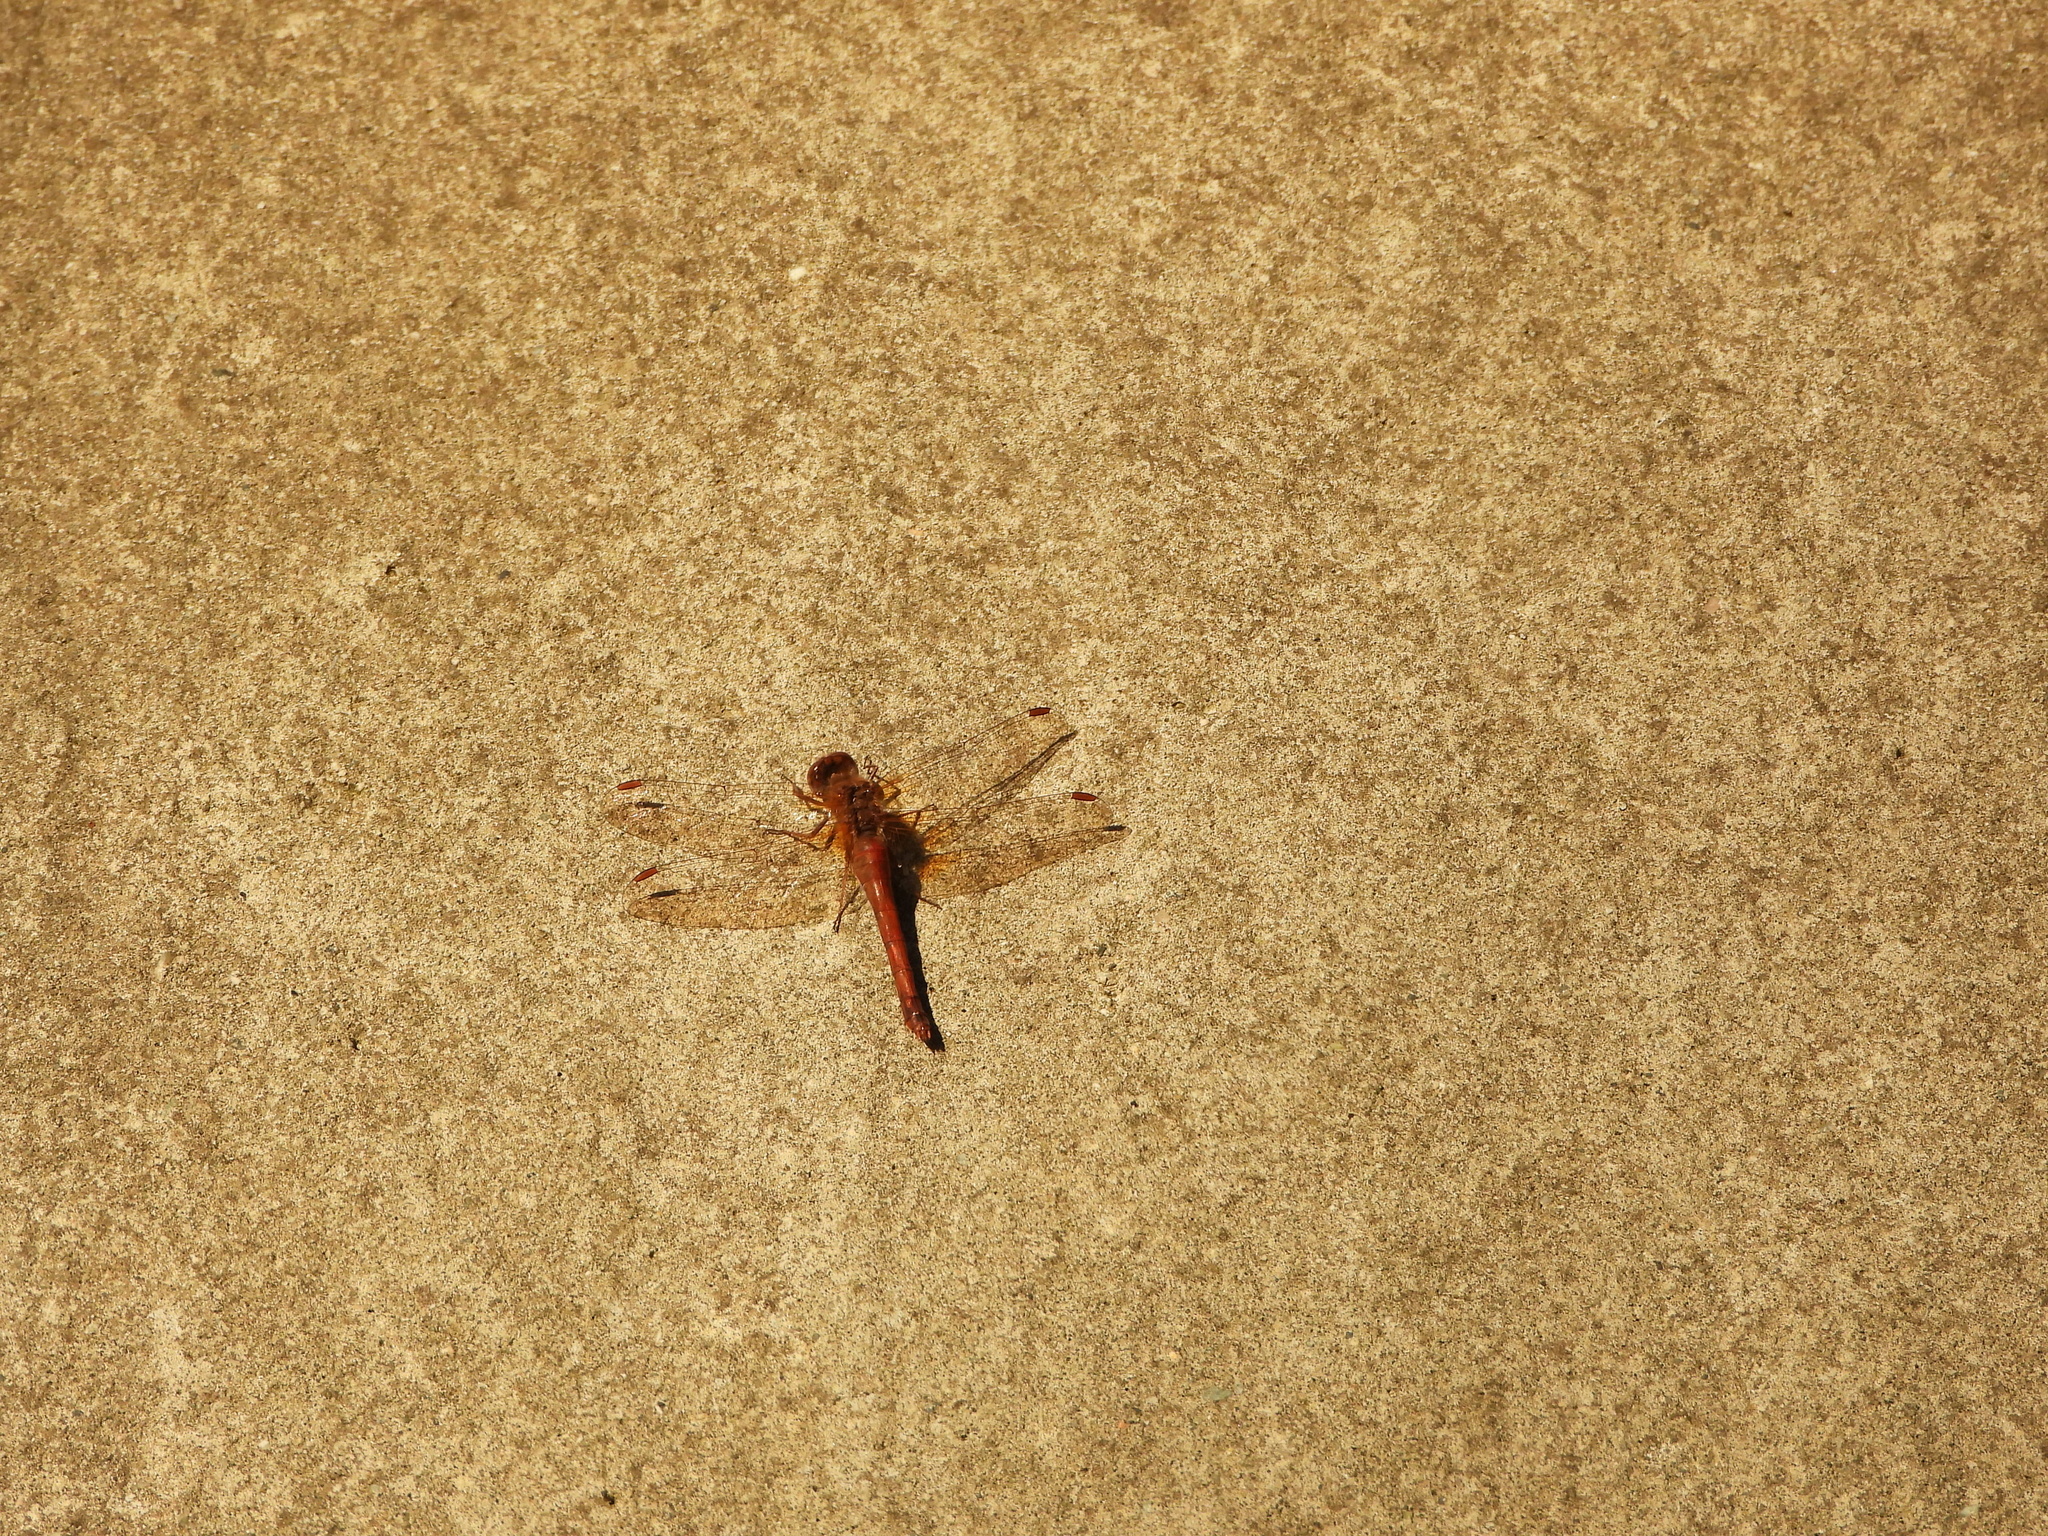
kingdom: Animalia
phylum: Arthropoda
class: Insecta
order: Odonata
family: Libellulidae
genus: Sympetrum
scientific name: Sympetrum vicinum
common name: Autumn meadowhawk
